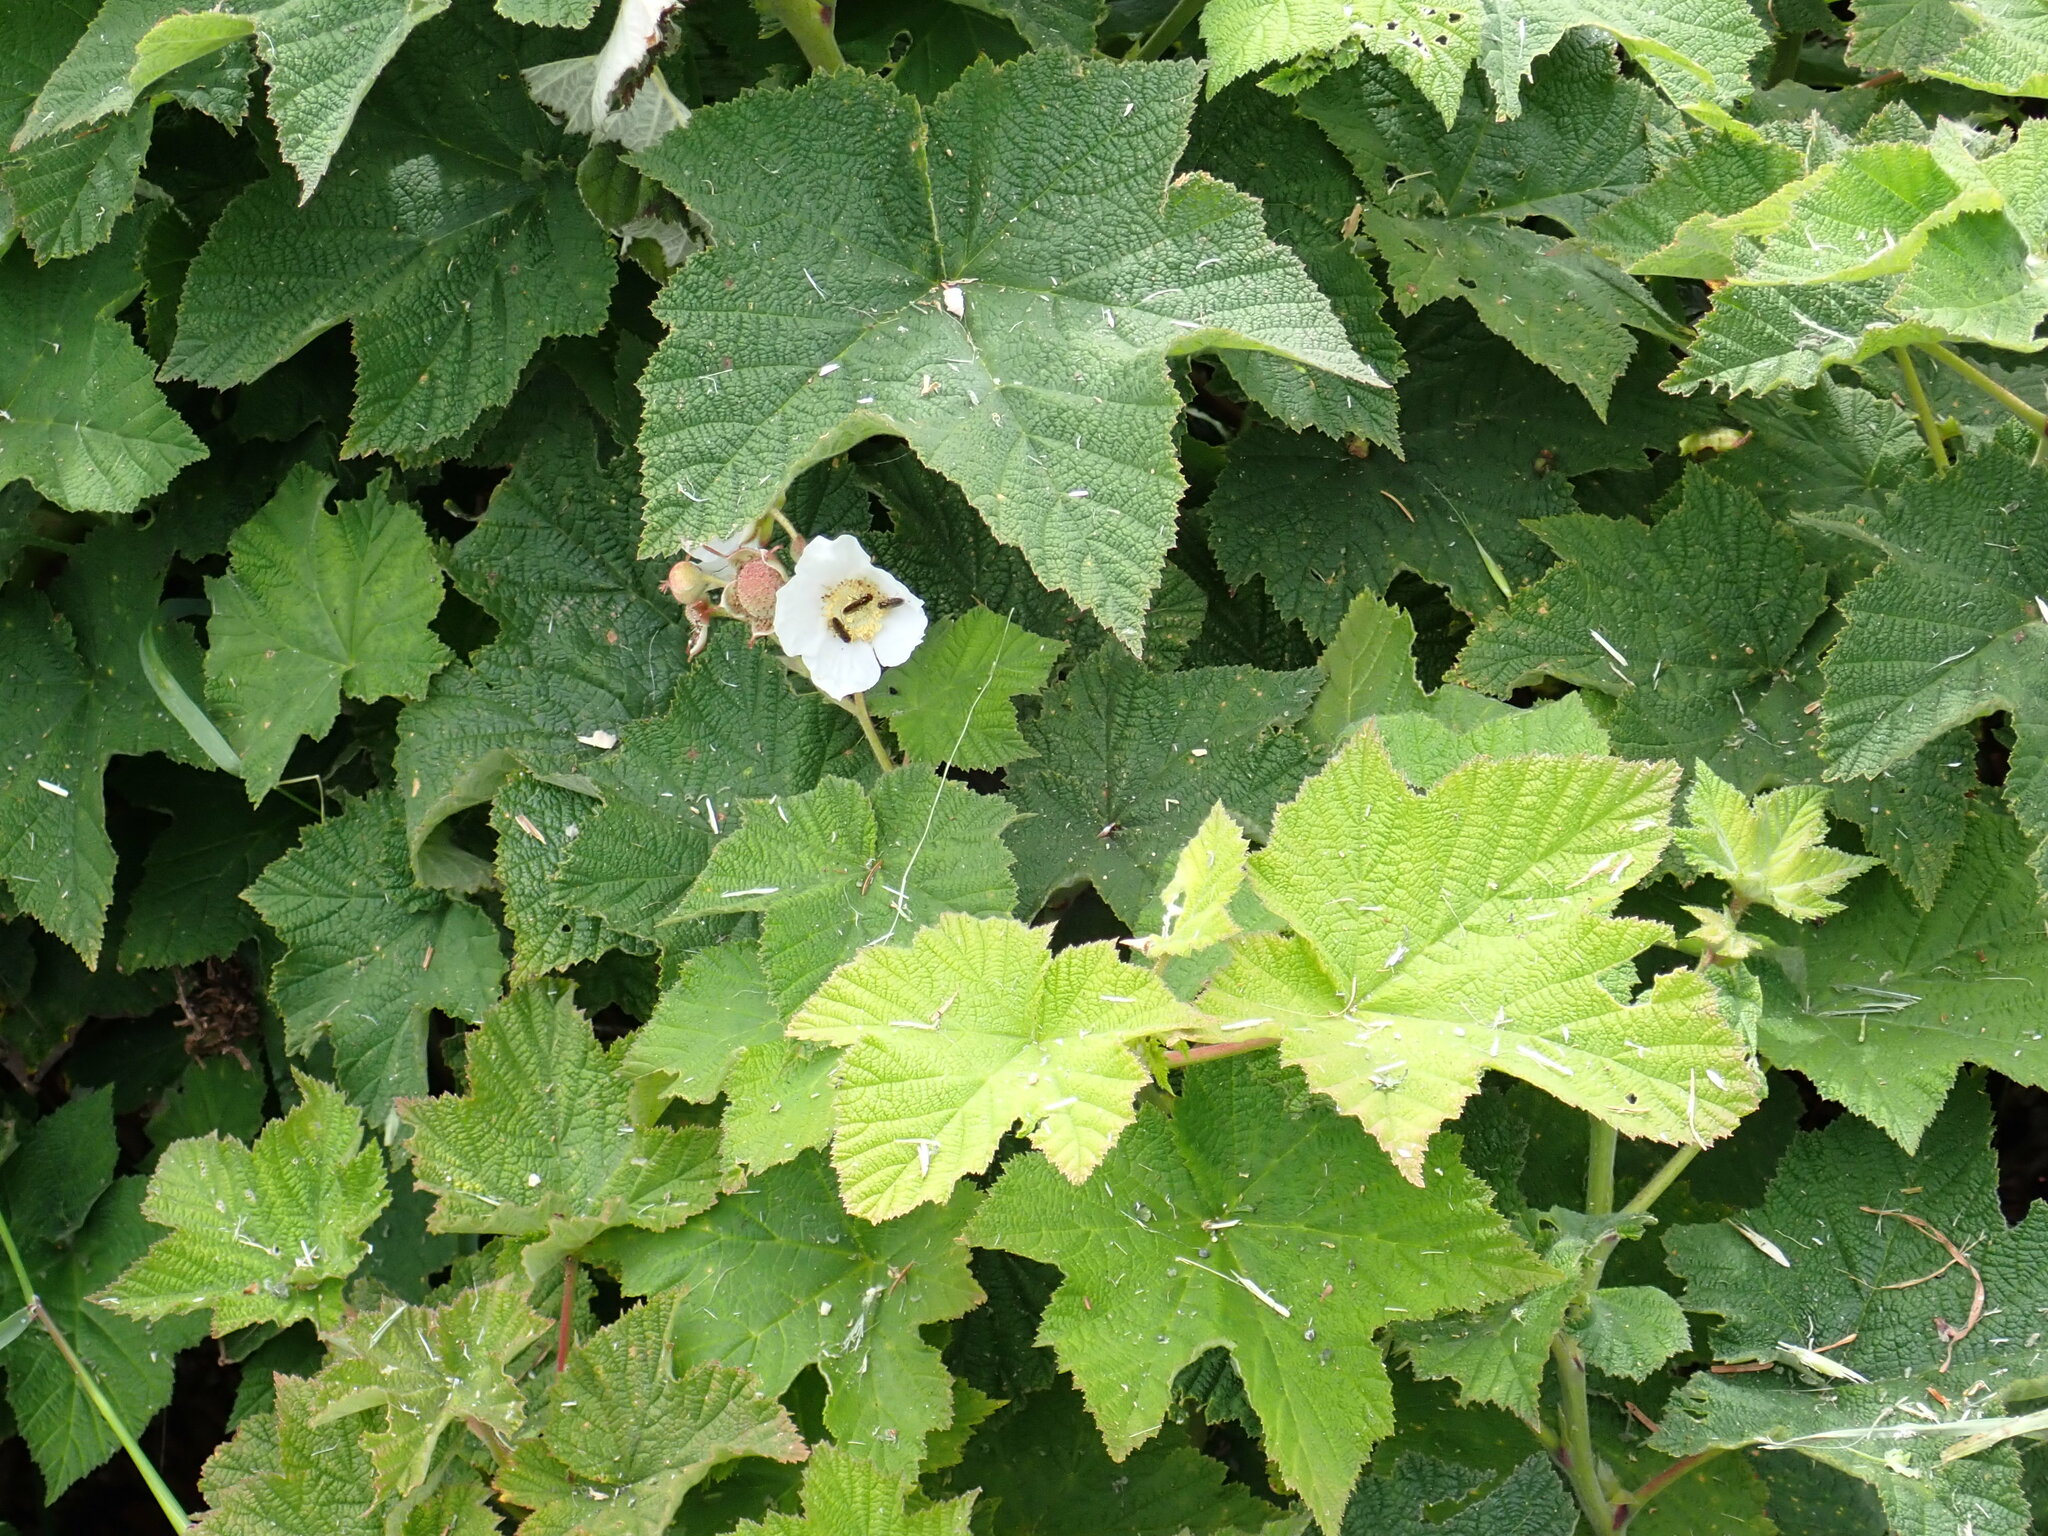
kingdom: Plantae
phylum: Tracheophyta
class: Magnoliopsida
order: Rosales
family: Rosaceae
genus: Rubus
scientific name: Rubus parviflorus
